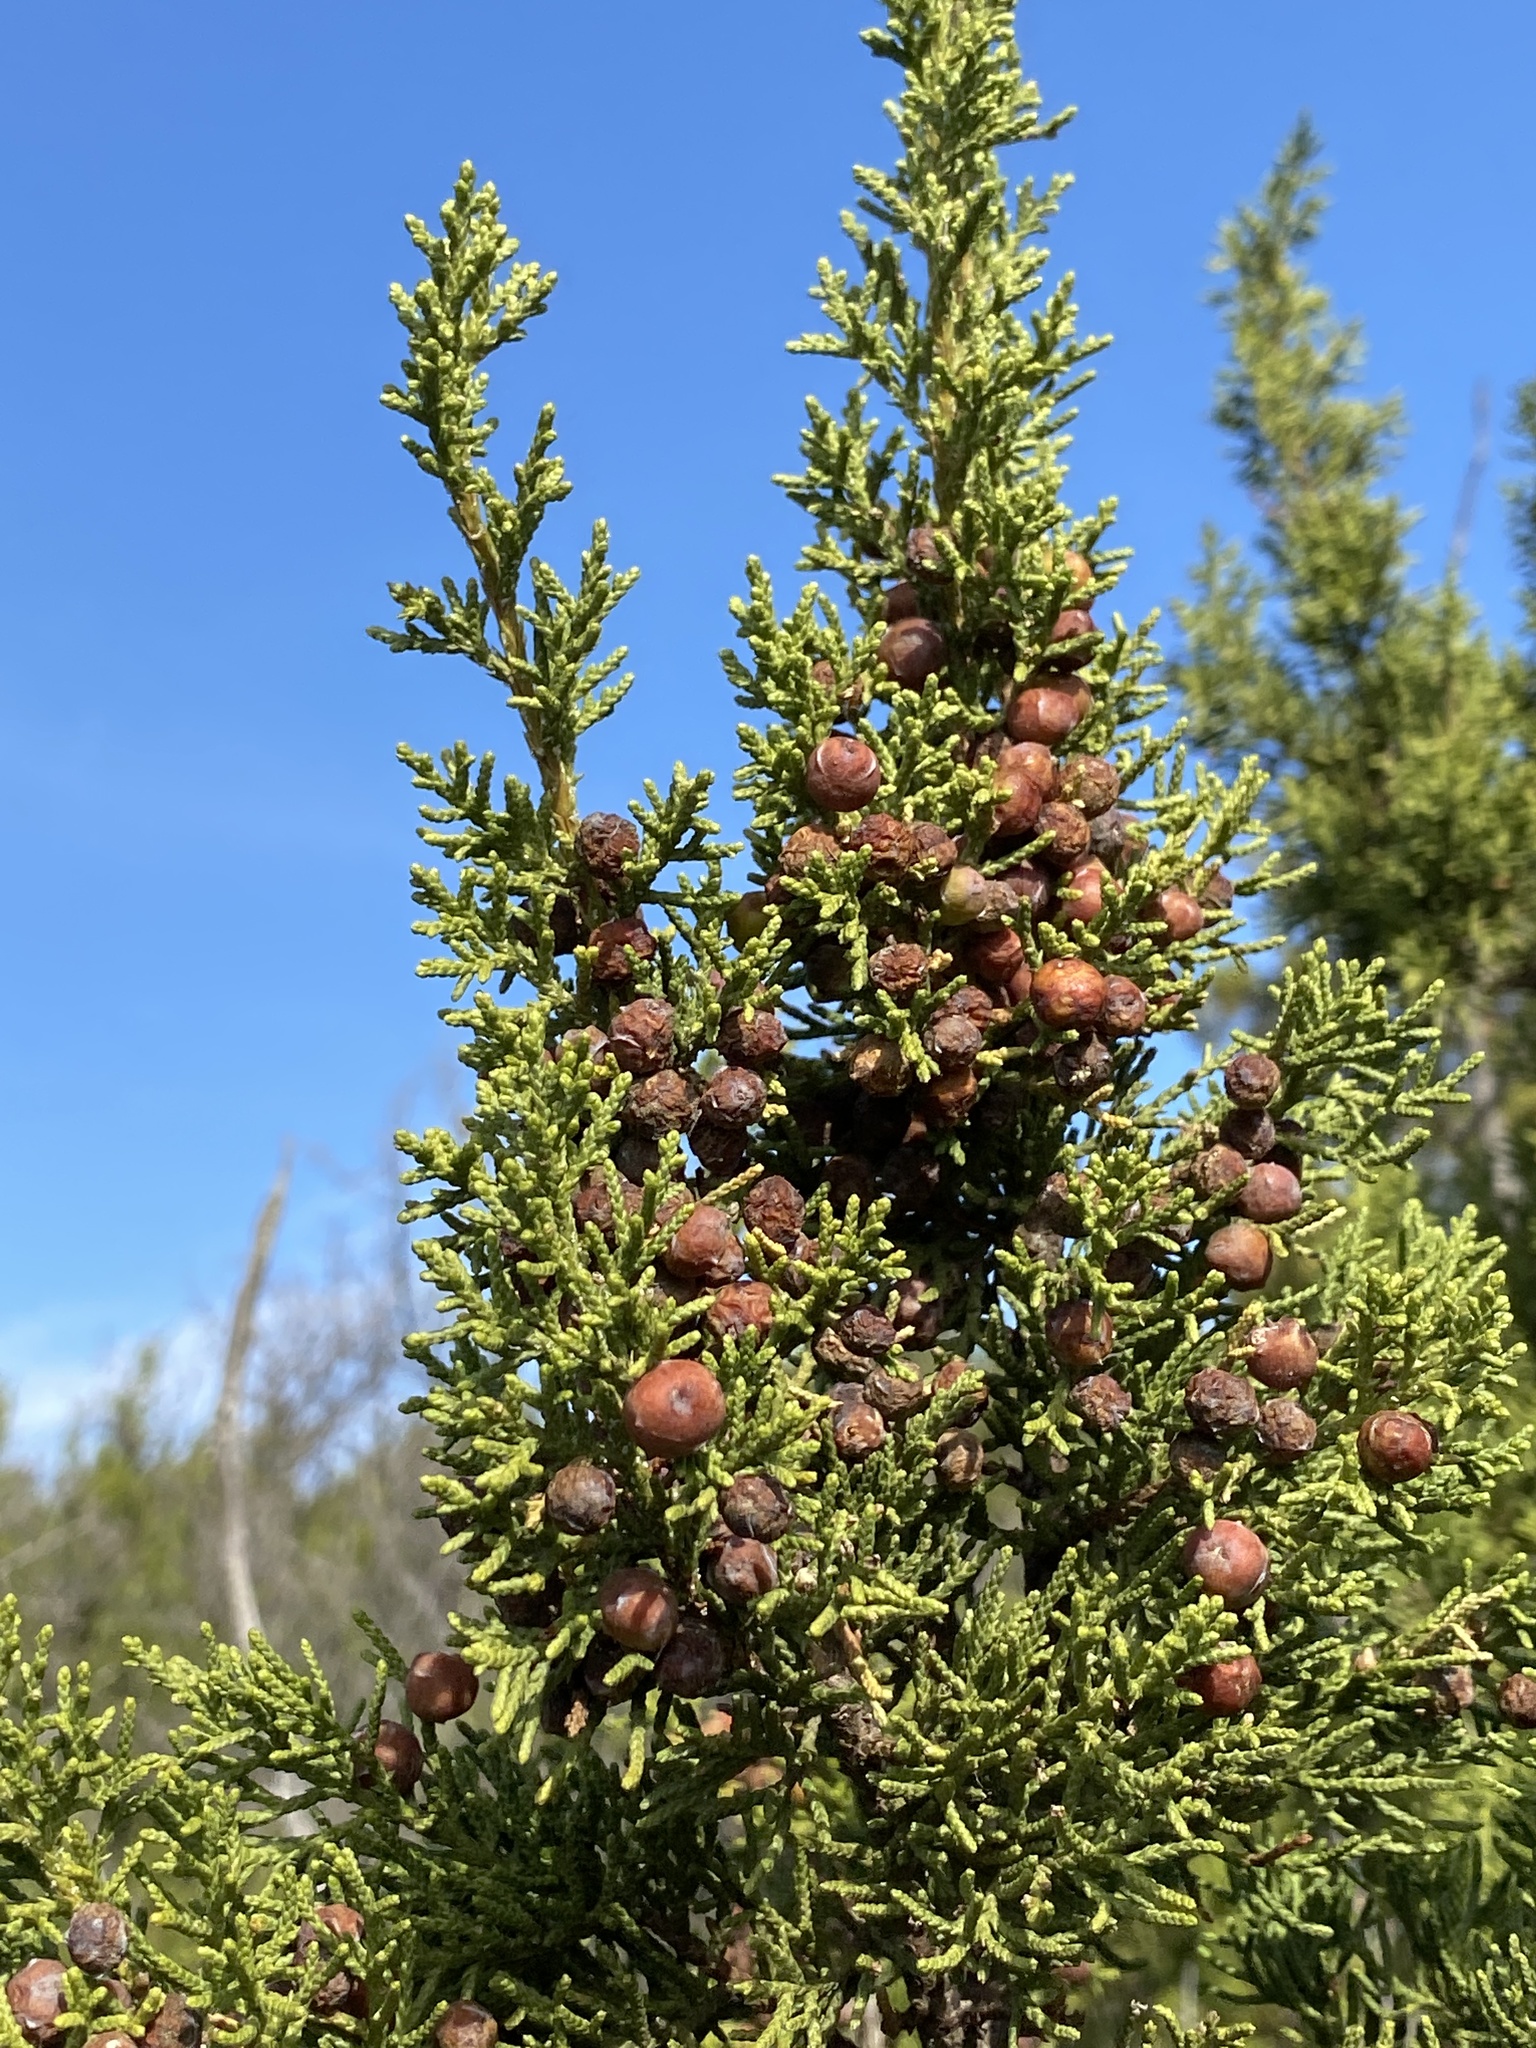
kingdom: Plantae
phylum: Tracheophyta
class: Pinopsida
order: Pinales
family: Cupressaceae
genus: Juniperus
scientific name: Juniperus pinchotii
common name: Pinchot juniper
